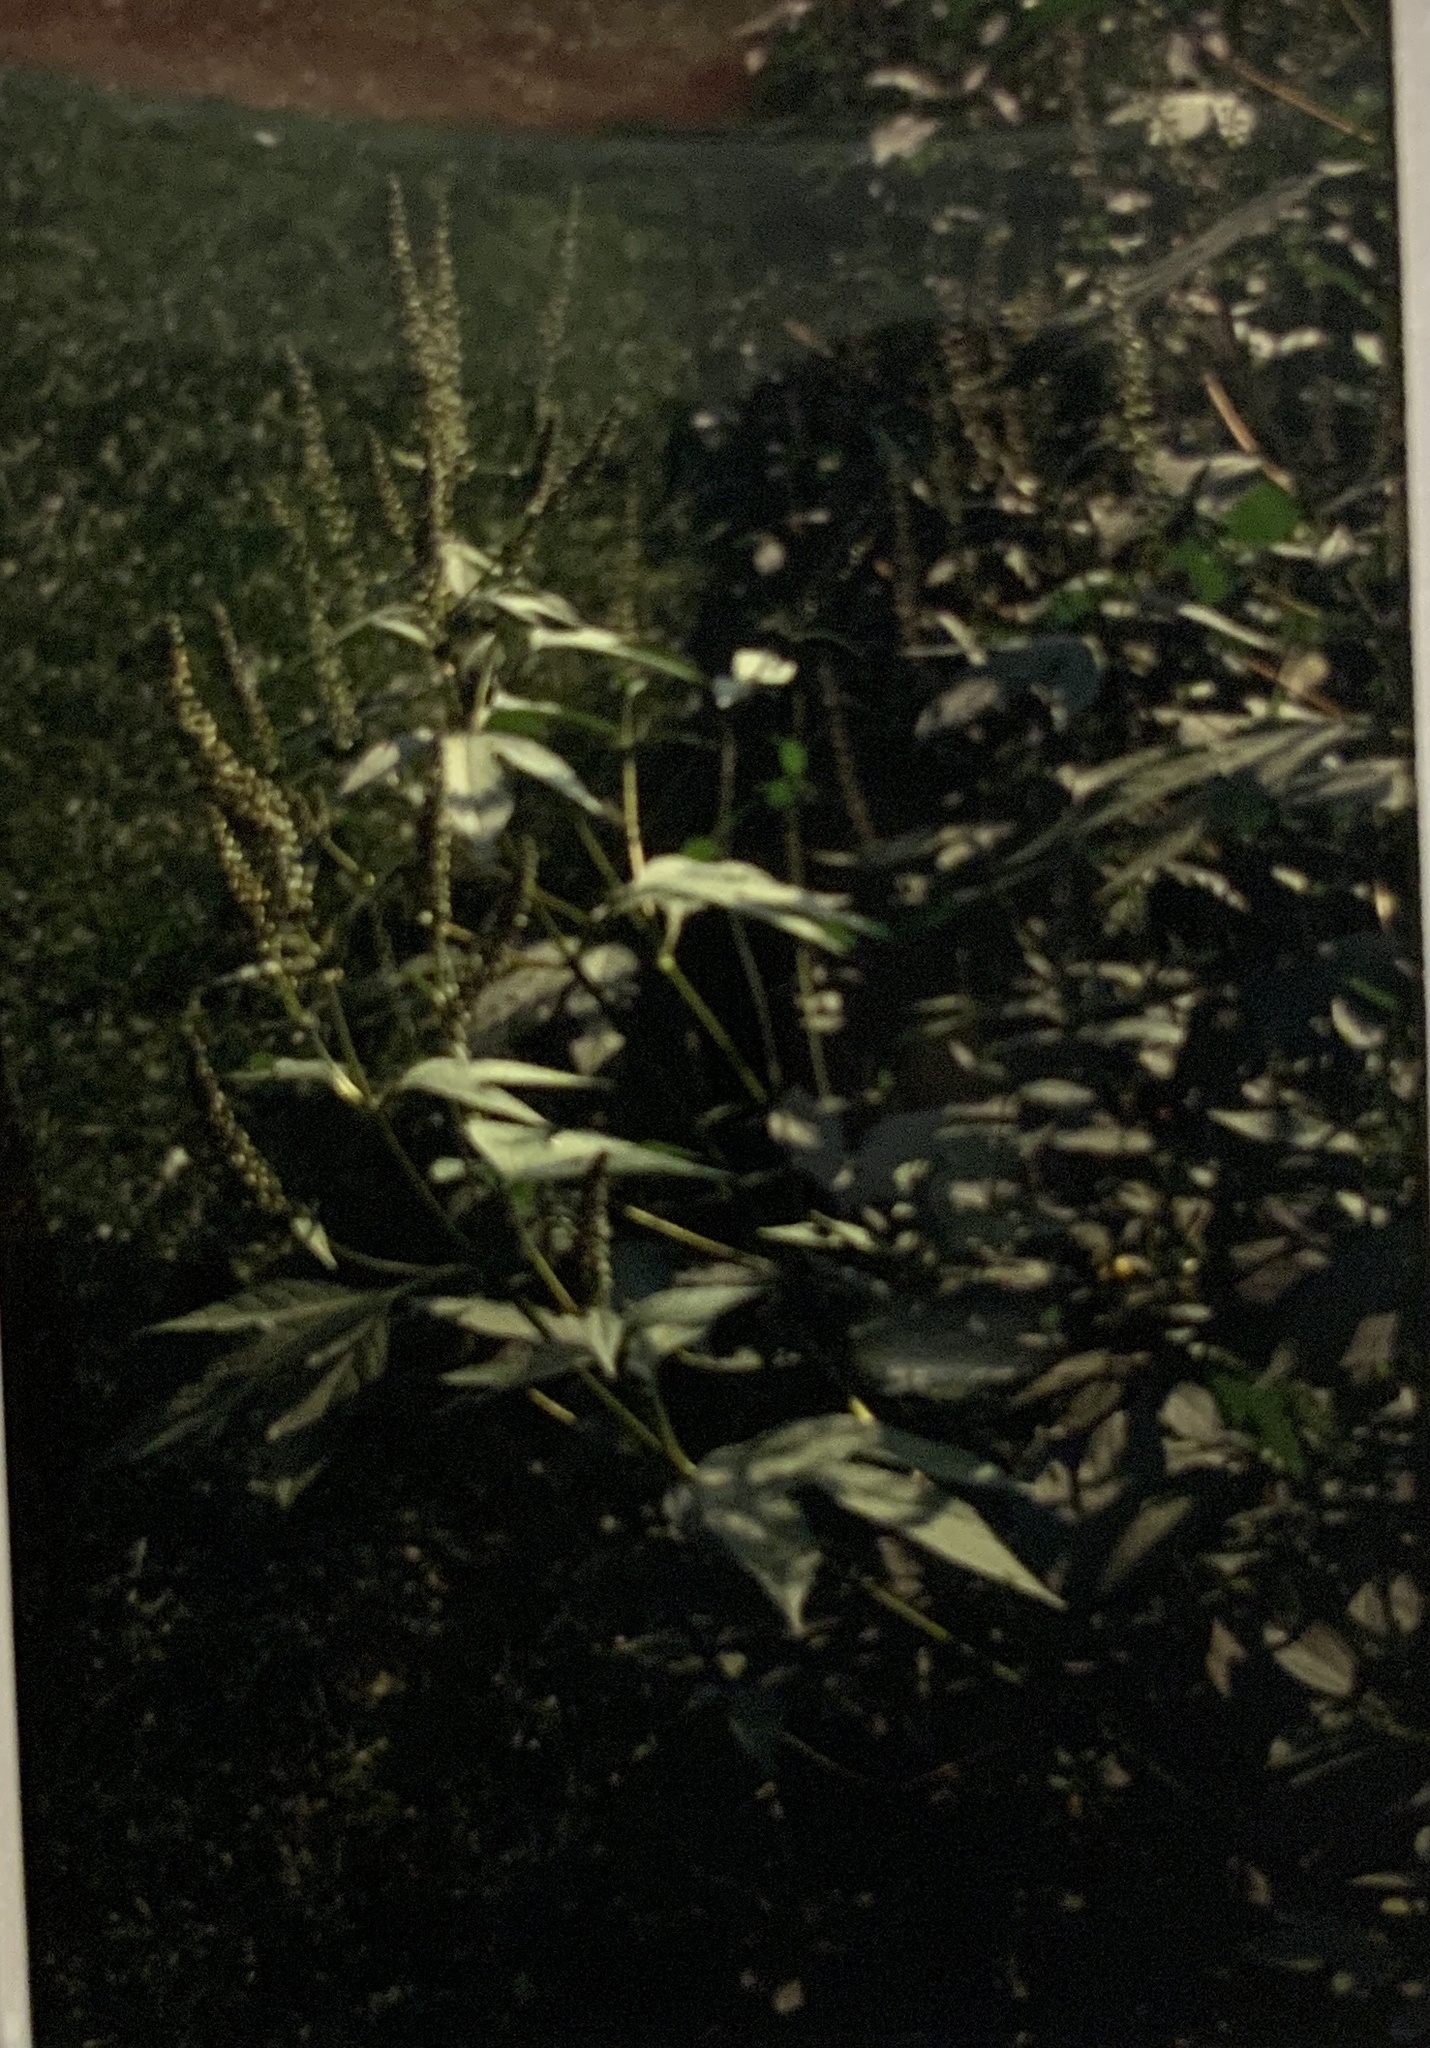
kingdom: Plantae
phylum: Tracheophyta
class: Magnoliopsida
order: Asterales
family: Asteraceae
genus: Ambrosia
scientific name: Ambrosia trifida
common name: Giant ragweed
